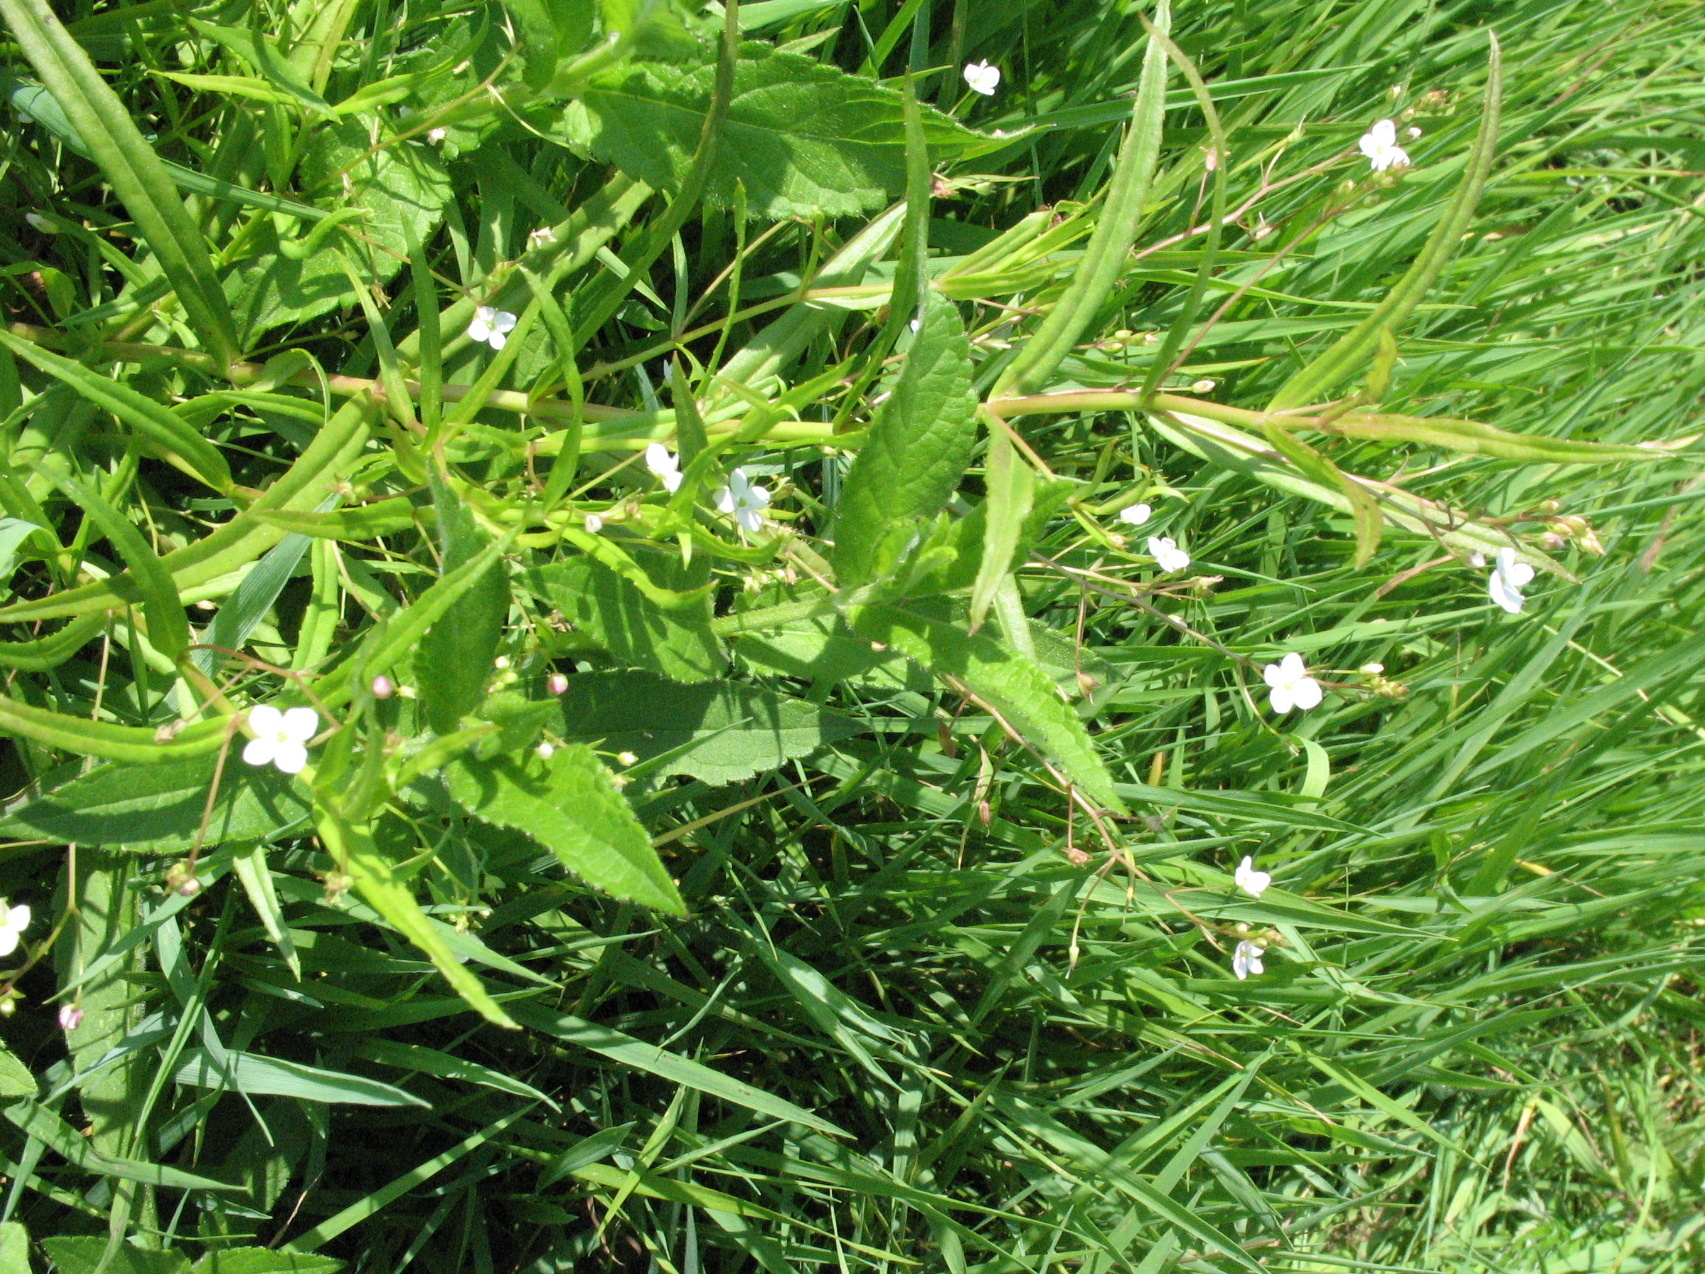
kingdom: Plantae
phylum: Tracheophyta
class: Magnoliopsida
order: Lamiales
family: Plantaginaceae
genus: Veronica
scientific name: Veronica scutellata
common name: Marsh speedwell
